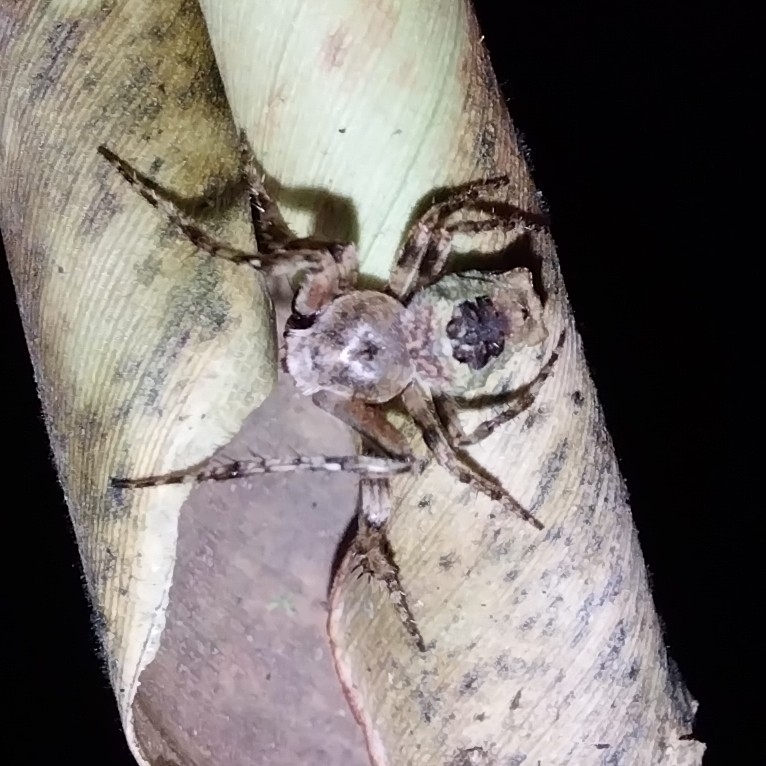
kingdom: Animalia
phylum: Arthropoda
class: Arachnida
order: Araneae
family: Araneidae
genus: Parawixia
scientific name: Parawixia velutina
